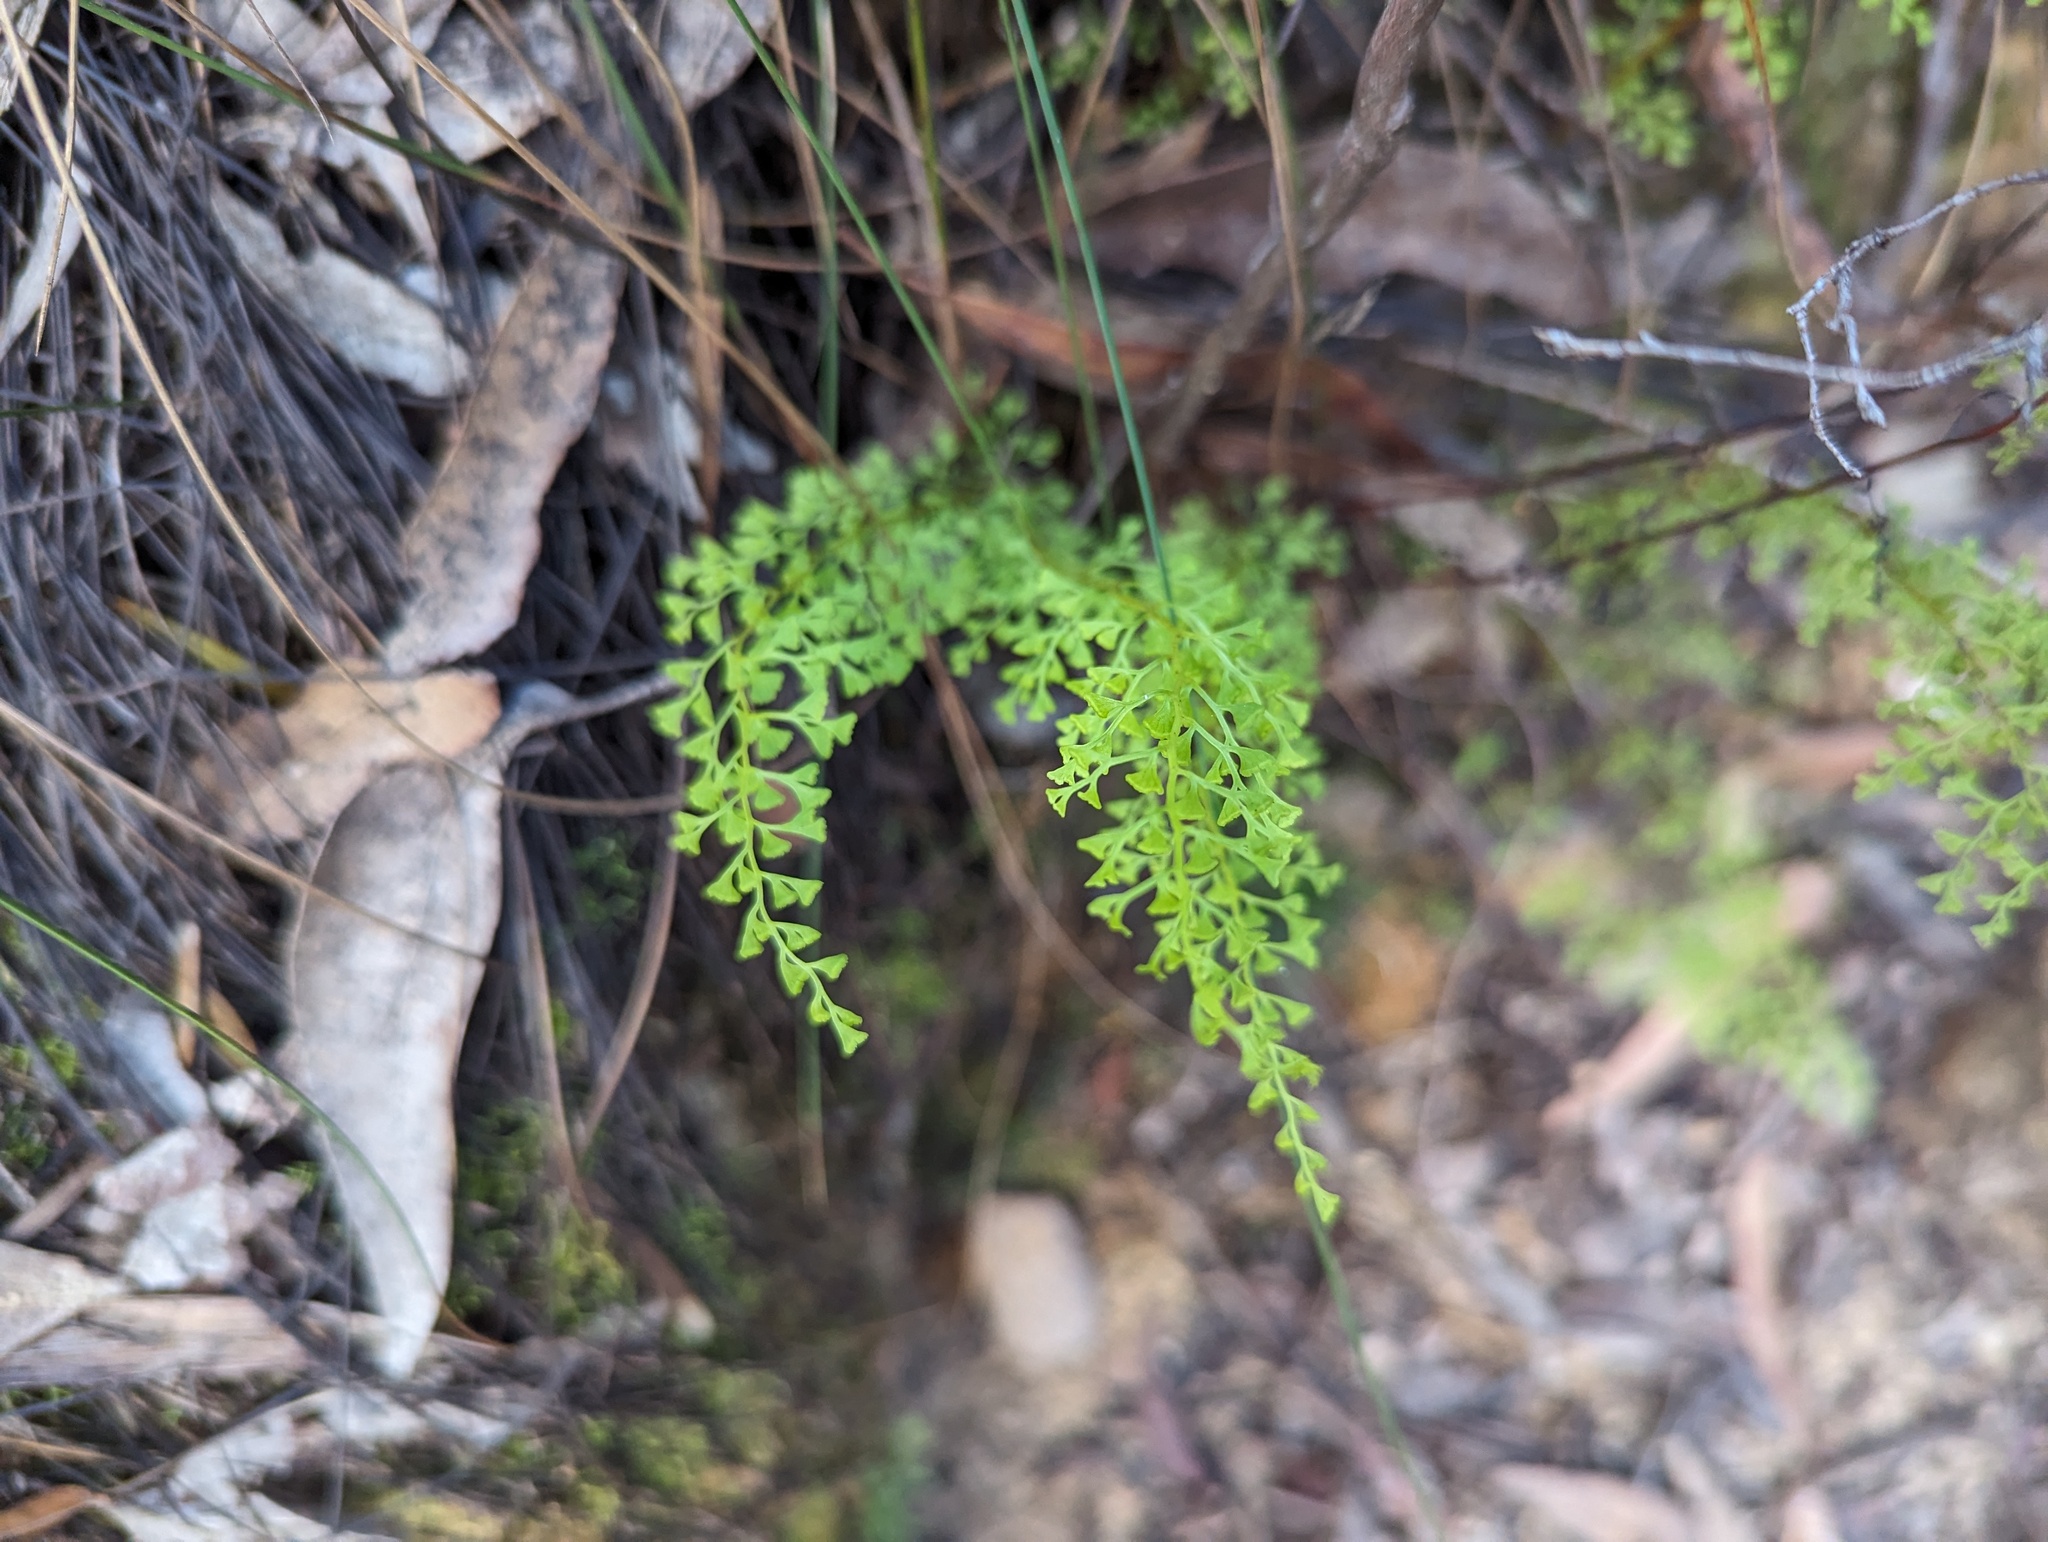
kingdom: Plantae
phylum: Tracheophyta
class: Polypodiopsida
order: Polypodiales
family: Lindsaeaceae
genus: Lindsaea
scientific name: Lindsaea microphylla
